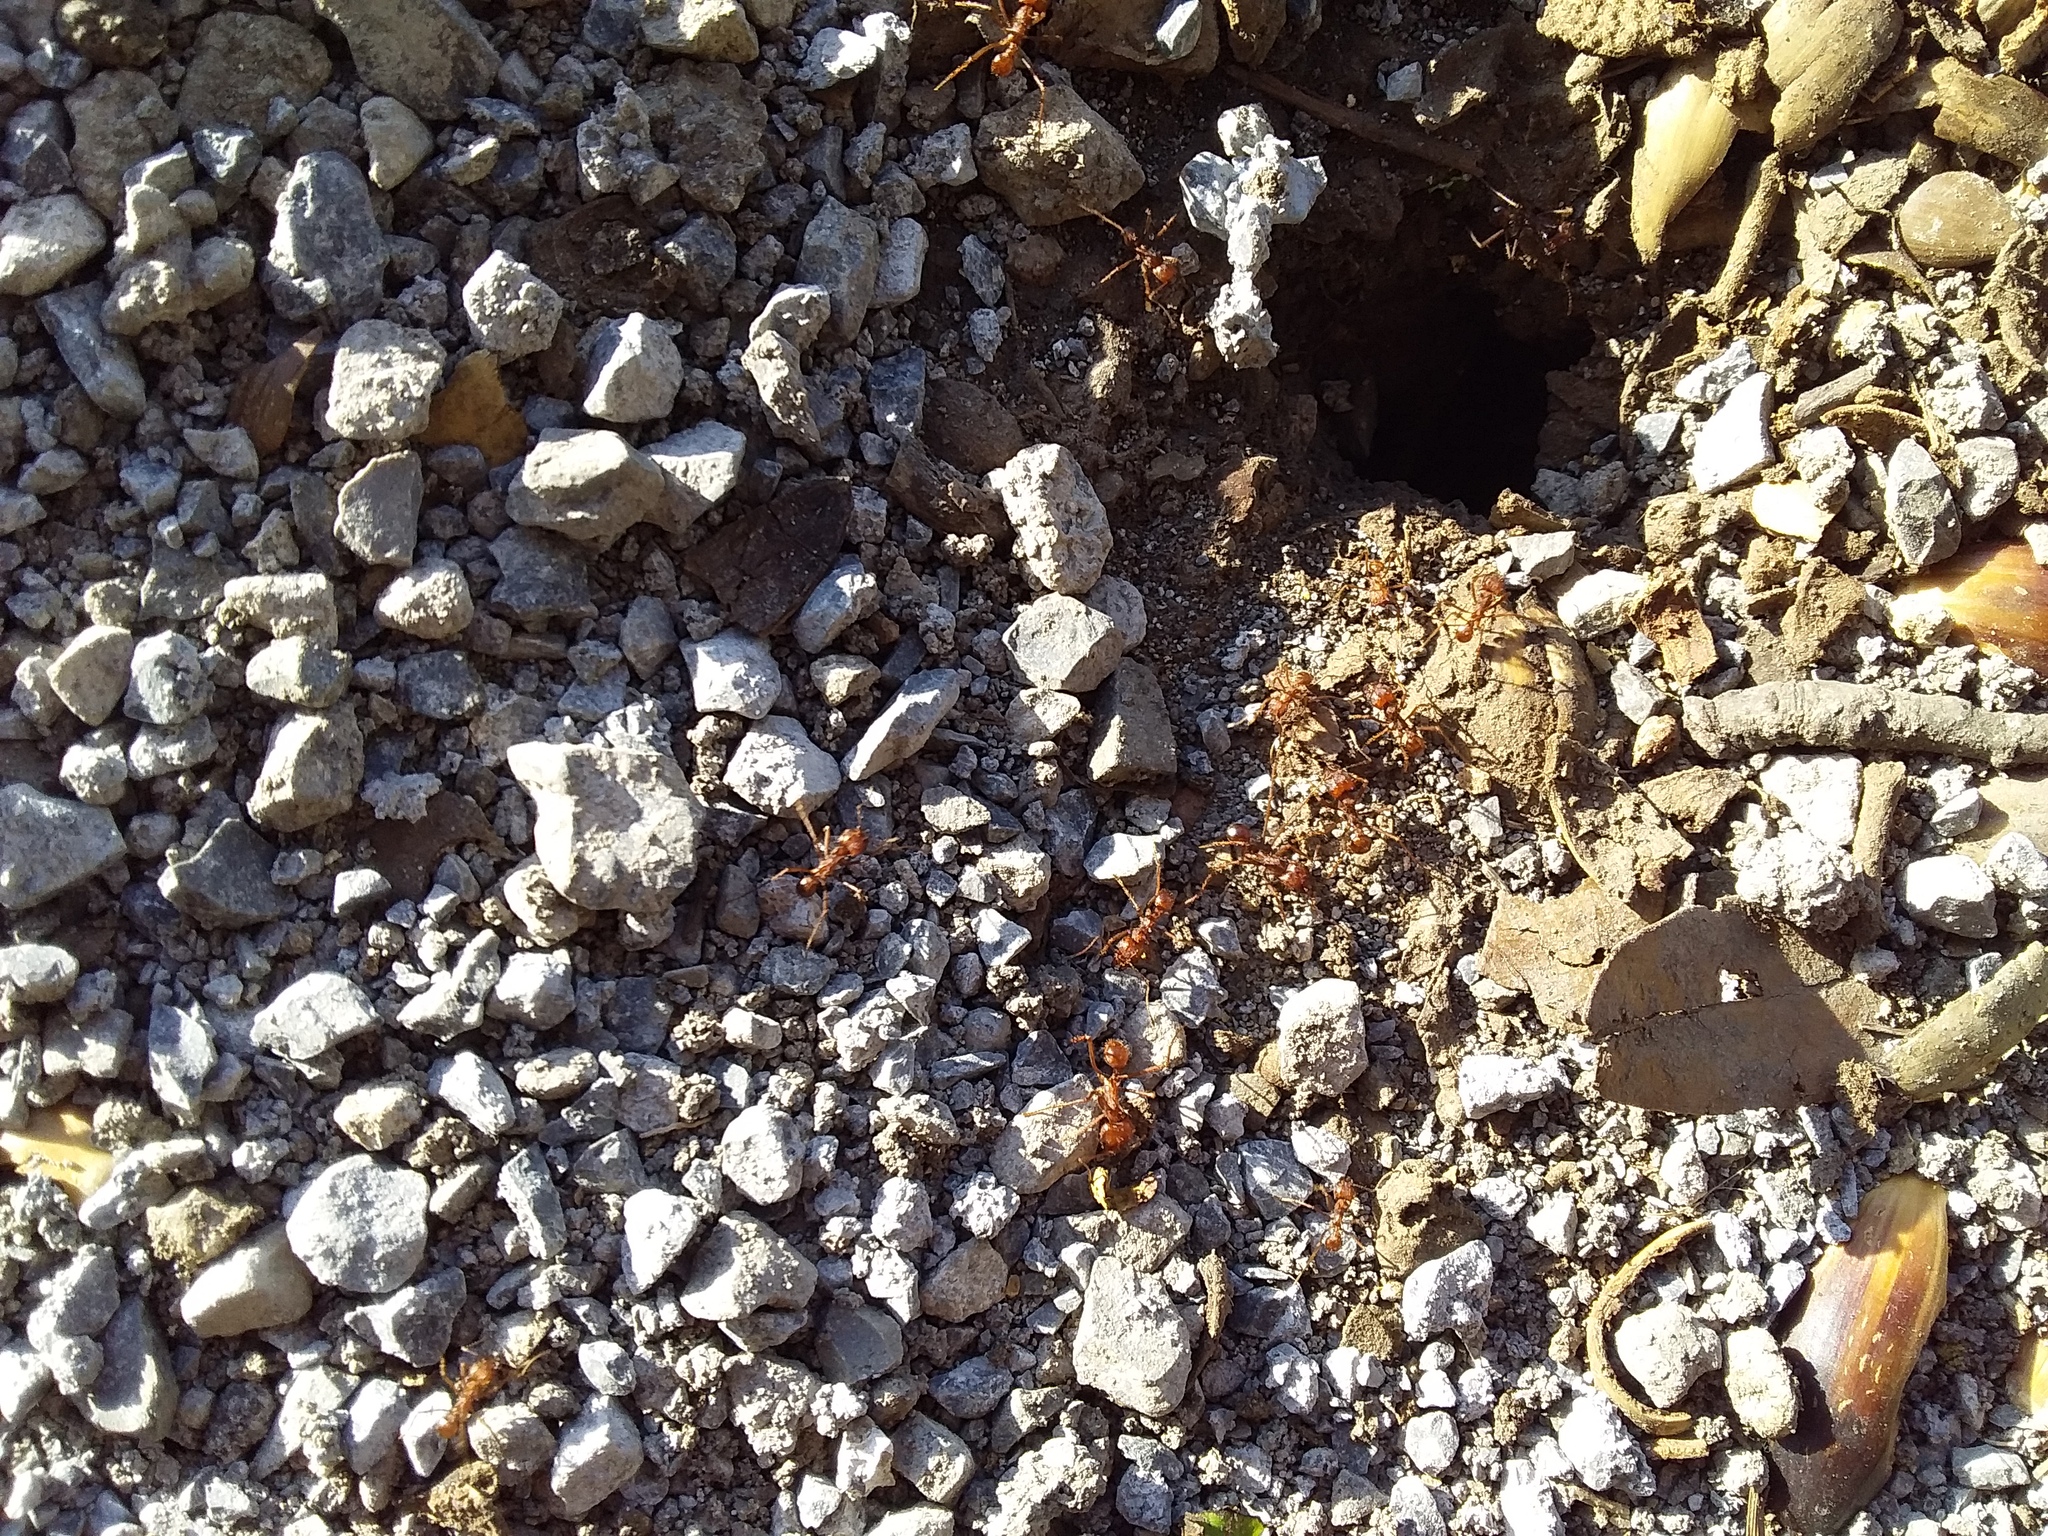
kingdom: Animalia
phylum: Arthropoda
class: Insecta
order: Hymenoptera
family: Formicidae
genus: Atta
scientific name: Atta mexicana
